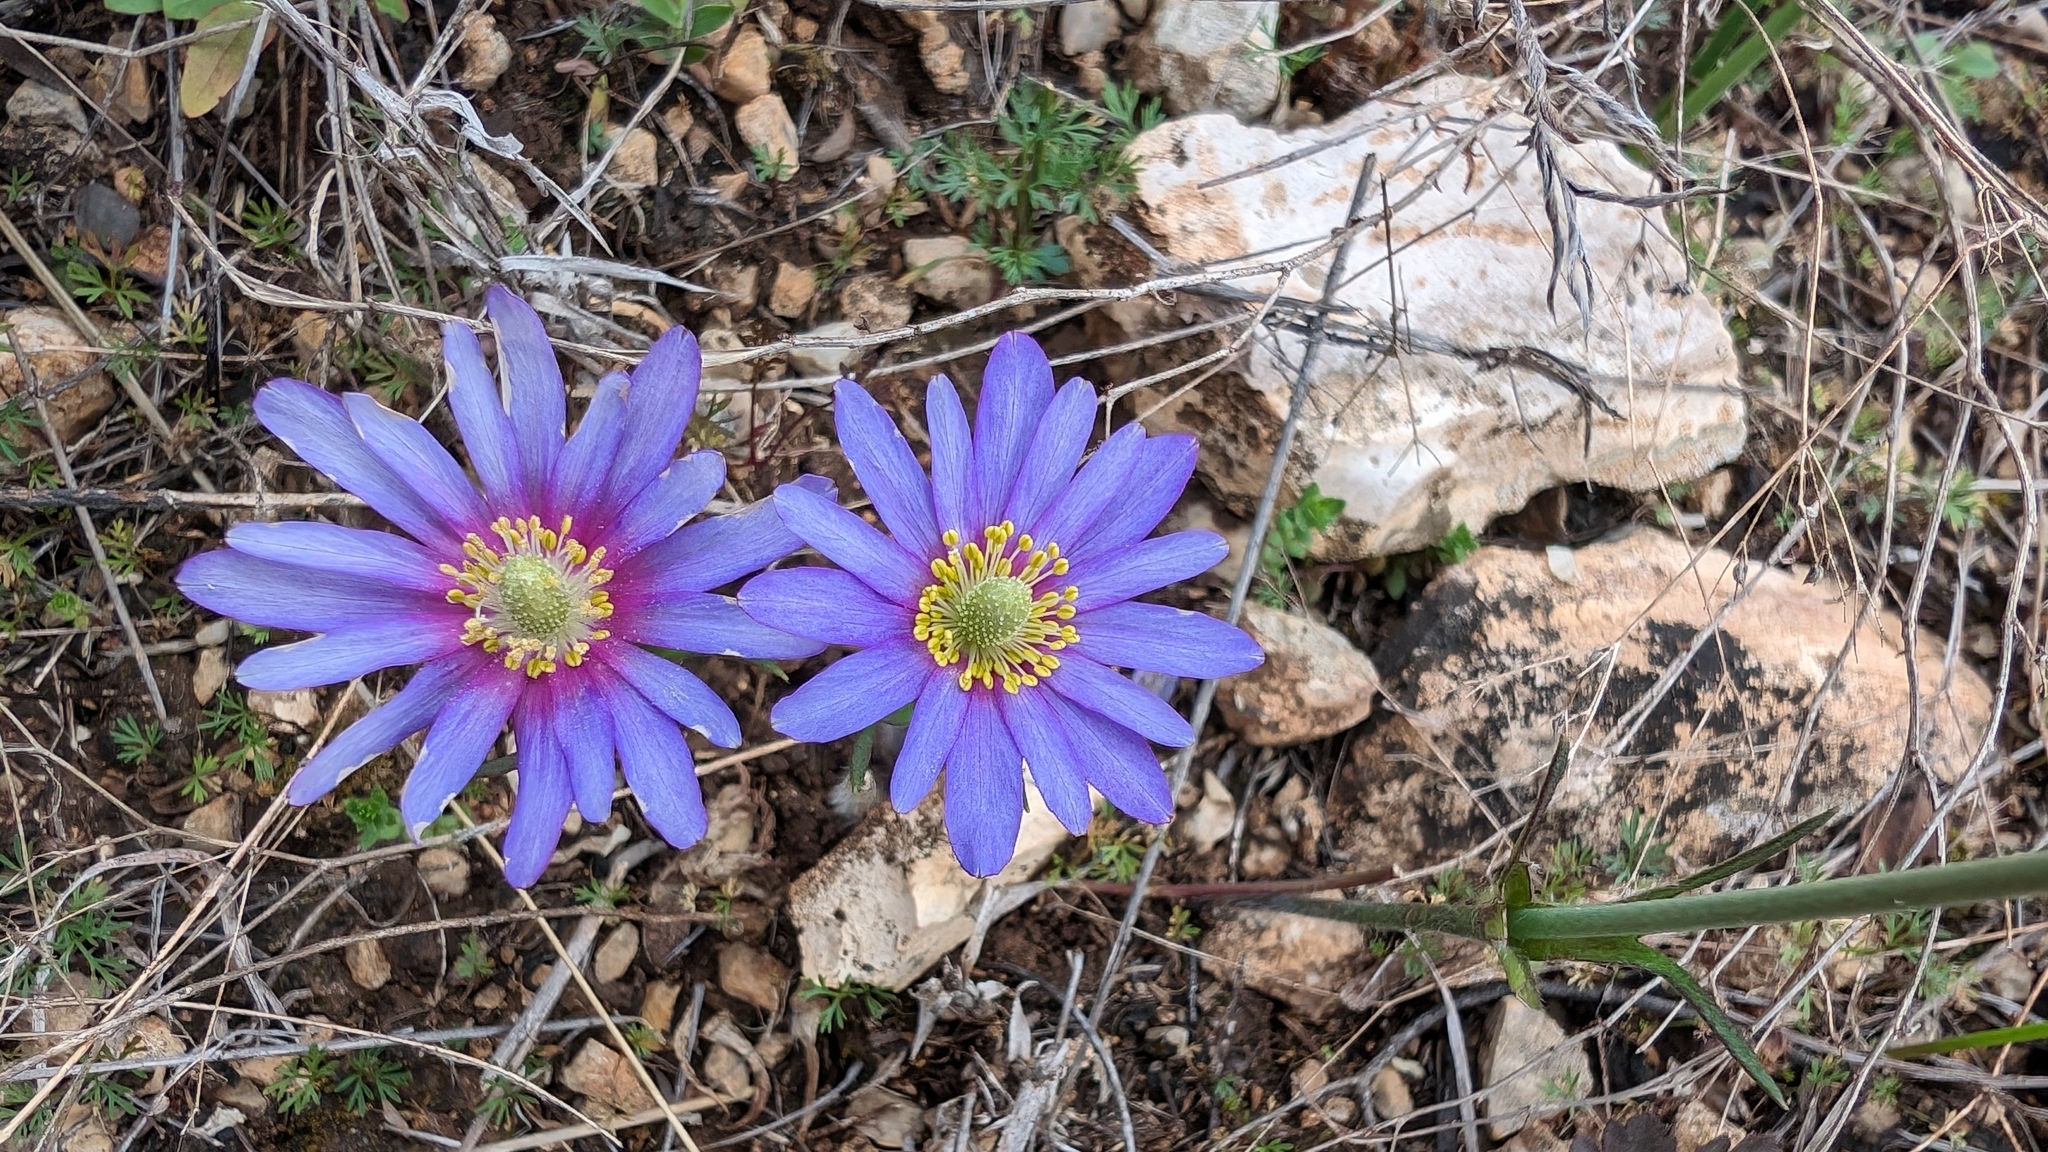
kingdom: Plantae
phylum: Tracheophyta
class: Magnoliopsida
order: Ranunculales
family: Ranunculaceae
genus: Anemone
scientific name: Anemone berlandieri
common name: Ten-petal anemone
